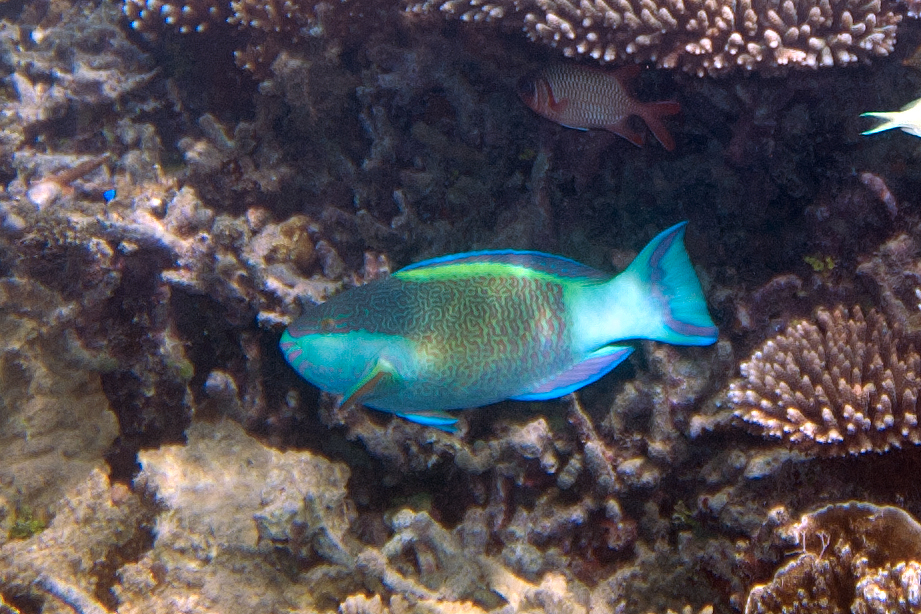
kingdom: Animalia
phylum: Chordata
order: Perciformes
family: Scaridae
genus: Scarus
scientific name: Scarus frenatus
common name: Bridled parrotfish
